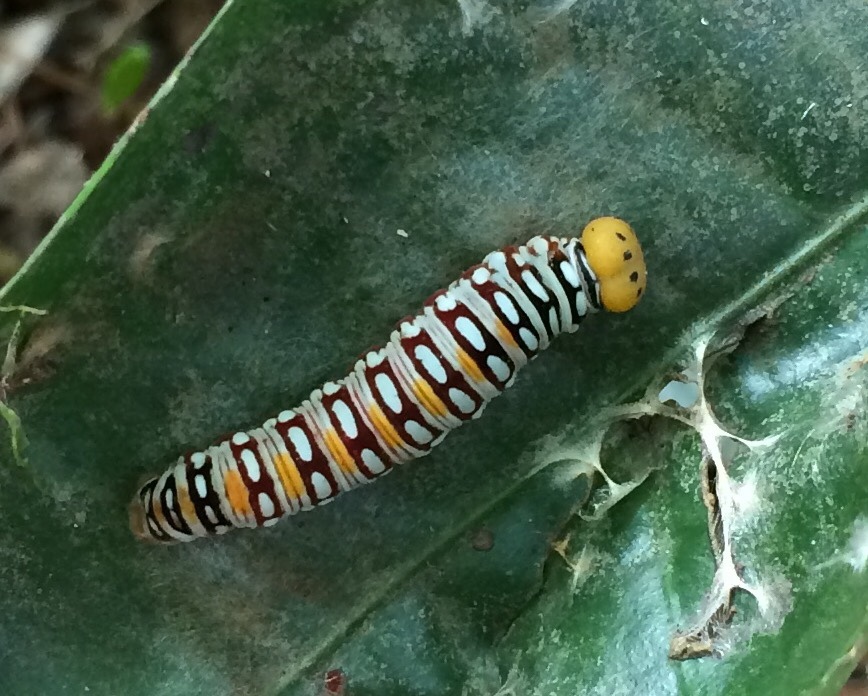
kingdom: Animalia
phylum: Arthropoda
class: Insecta
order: Lepidoptera
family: Hesperiidae
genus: Coeliades
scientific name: Coeliades keithloa
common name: Red-tab policeman
